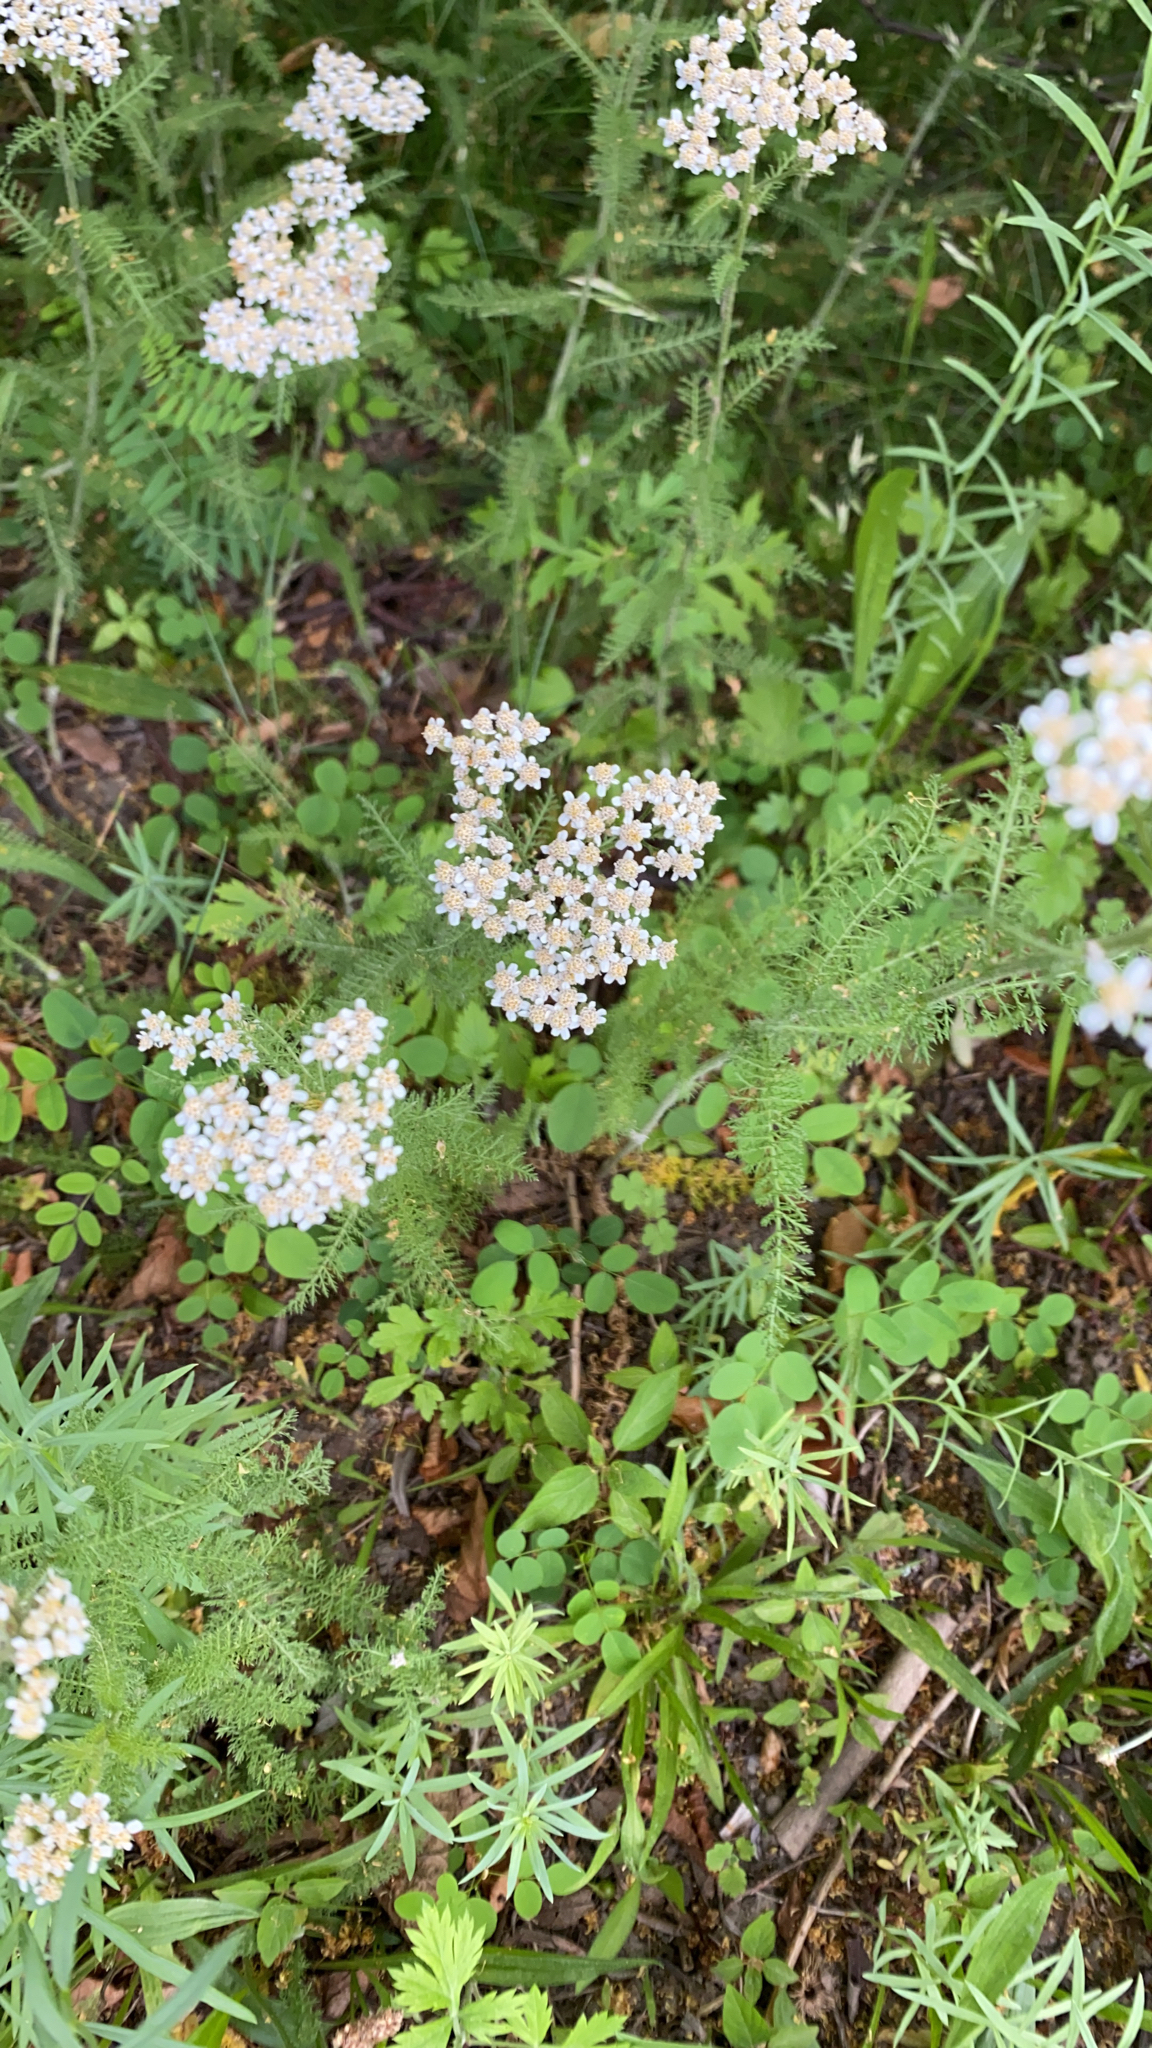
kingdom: Plantae
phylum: Tracheophyta
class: Magnoliopsida
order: Asterales
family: Asteraceae
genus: Achillea
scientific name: Achillea millefolium
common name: Yarrow
